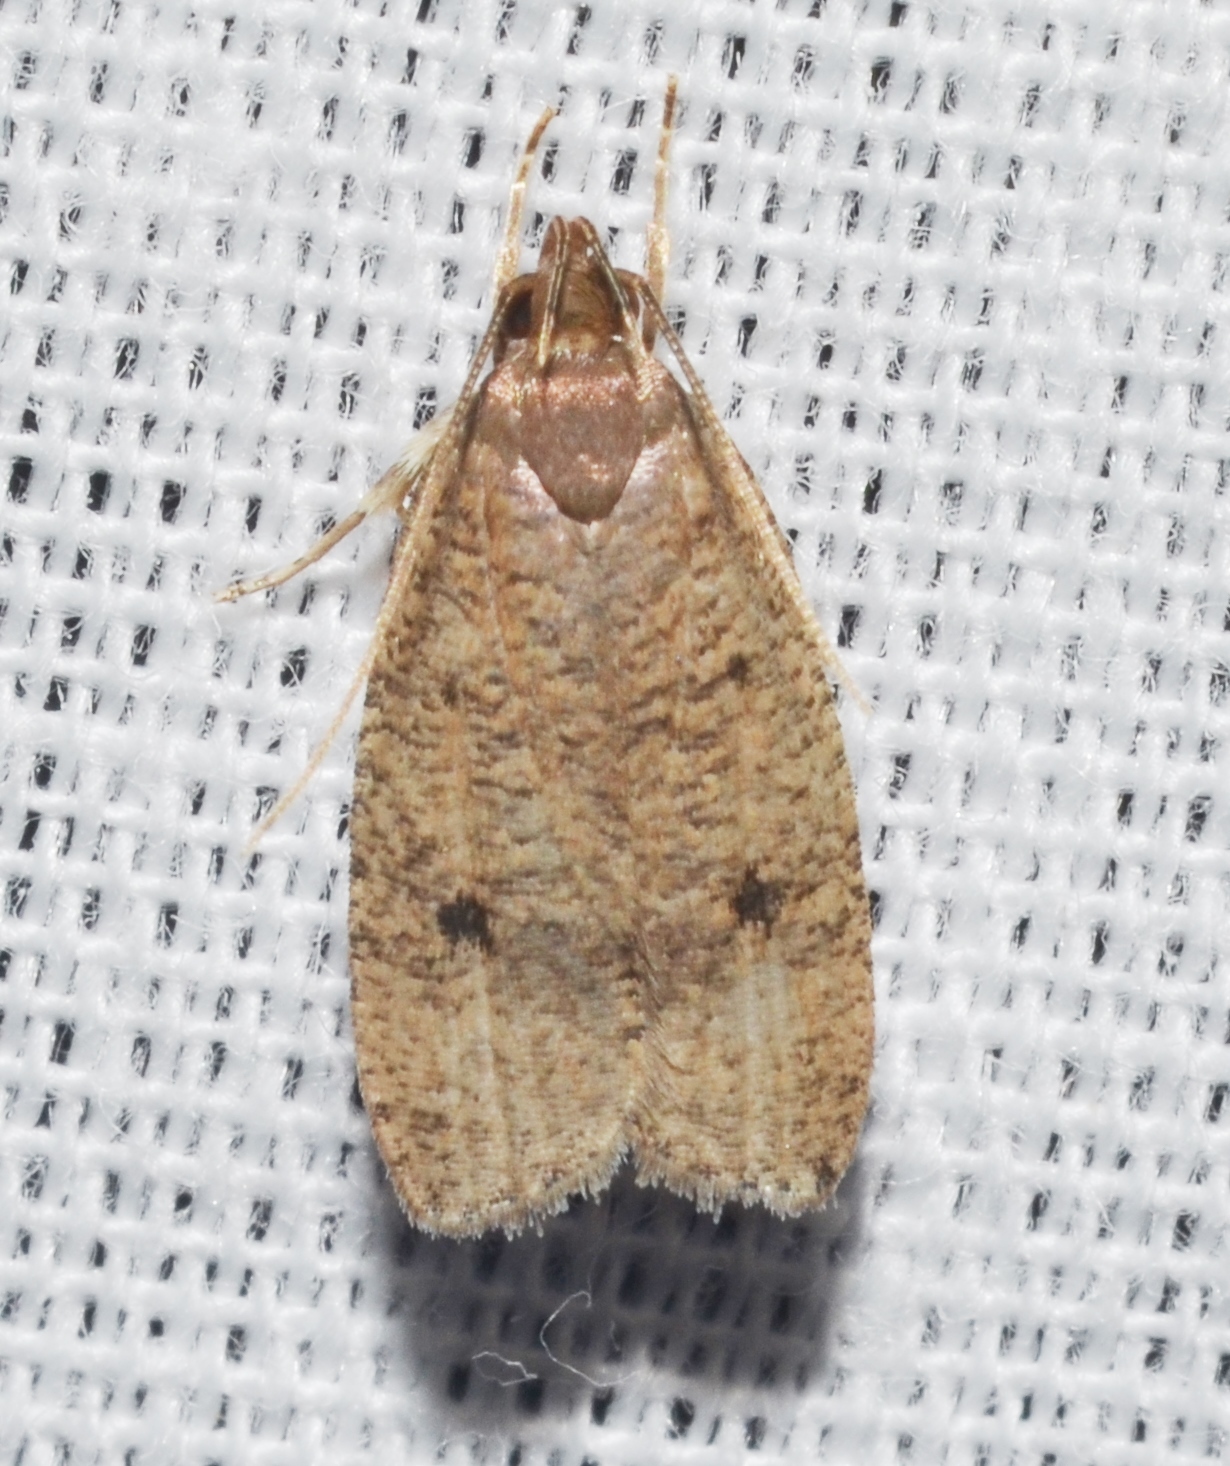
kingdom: Animalia
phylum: Arthropoda
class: Insecta
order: Lepidoptera
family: Depressariidae
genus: Psilocorsis
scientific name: Psilocorsis reflexella
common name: Dotted leaftier moth
